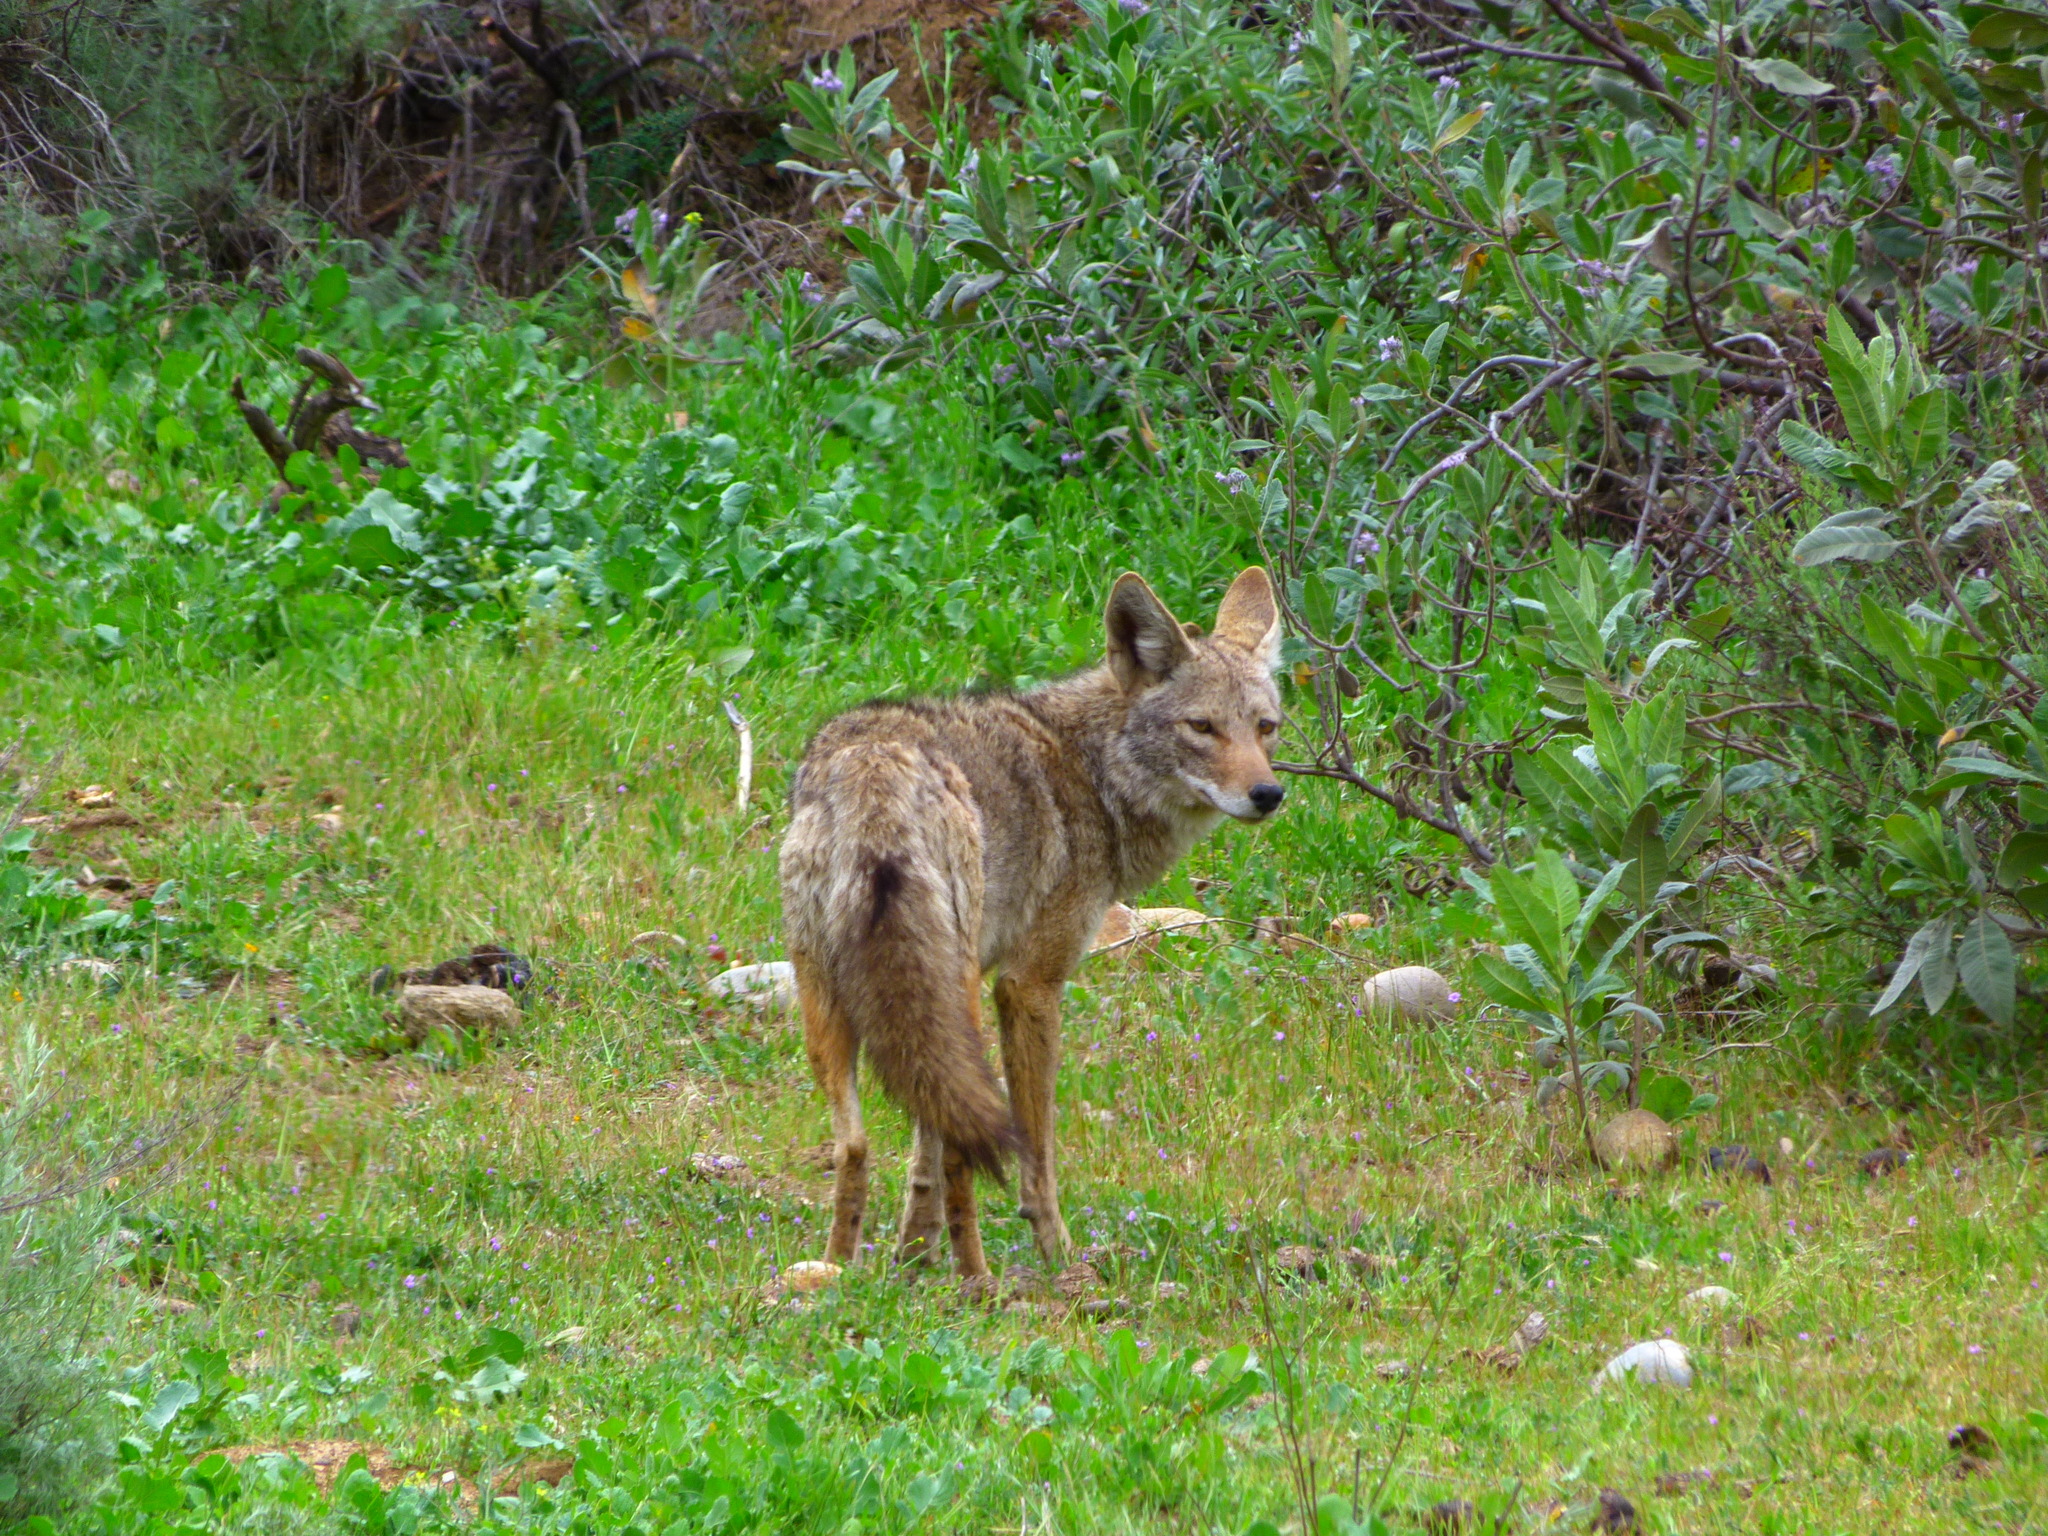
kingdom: Animalia
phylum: Chordata
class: Mammalia
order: Carnivora
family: Canidae
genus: Canis
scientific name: Canis latrans
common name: Coyote
